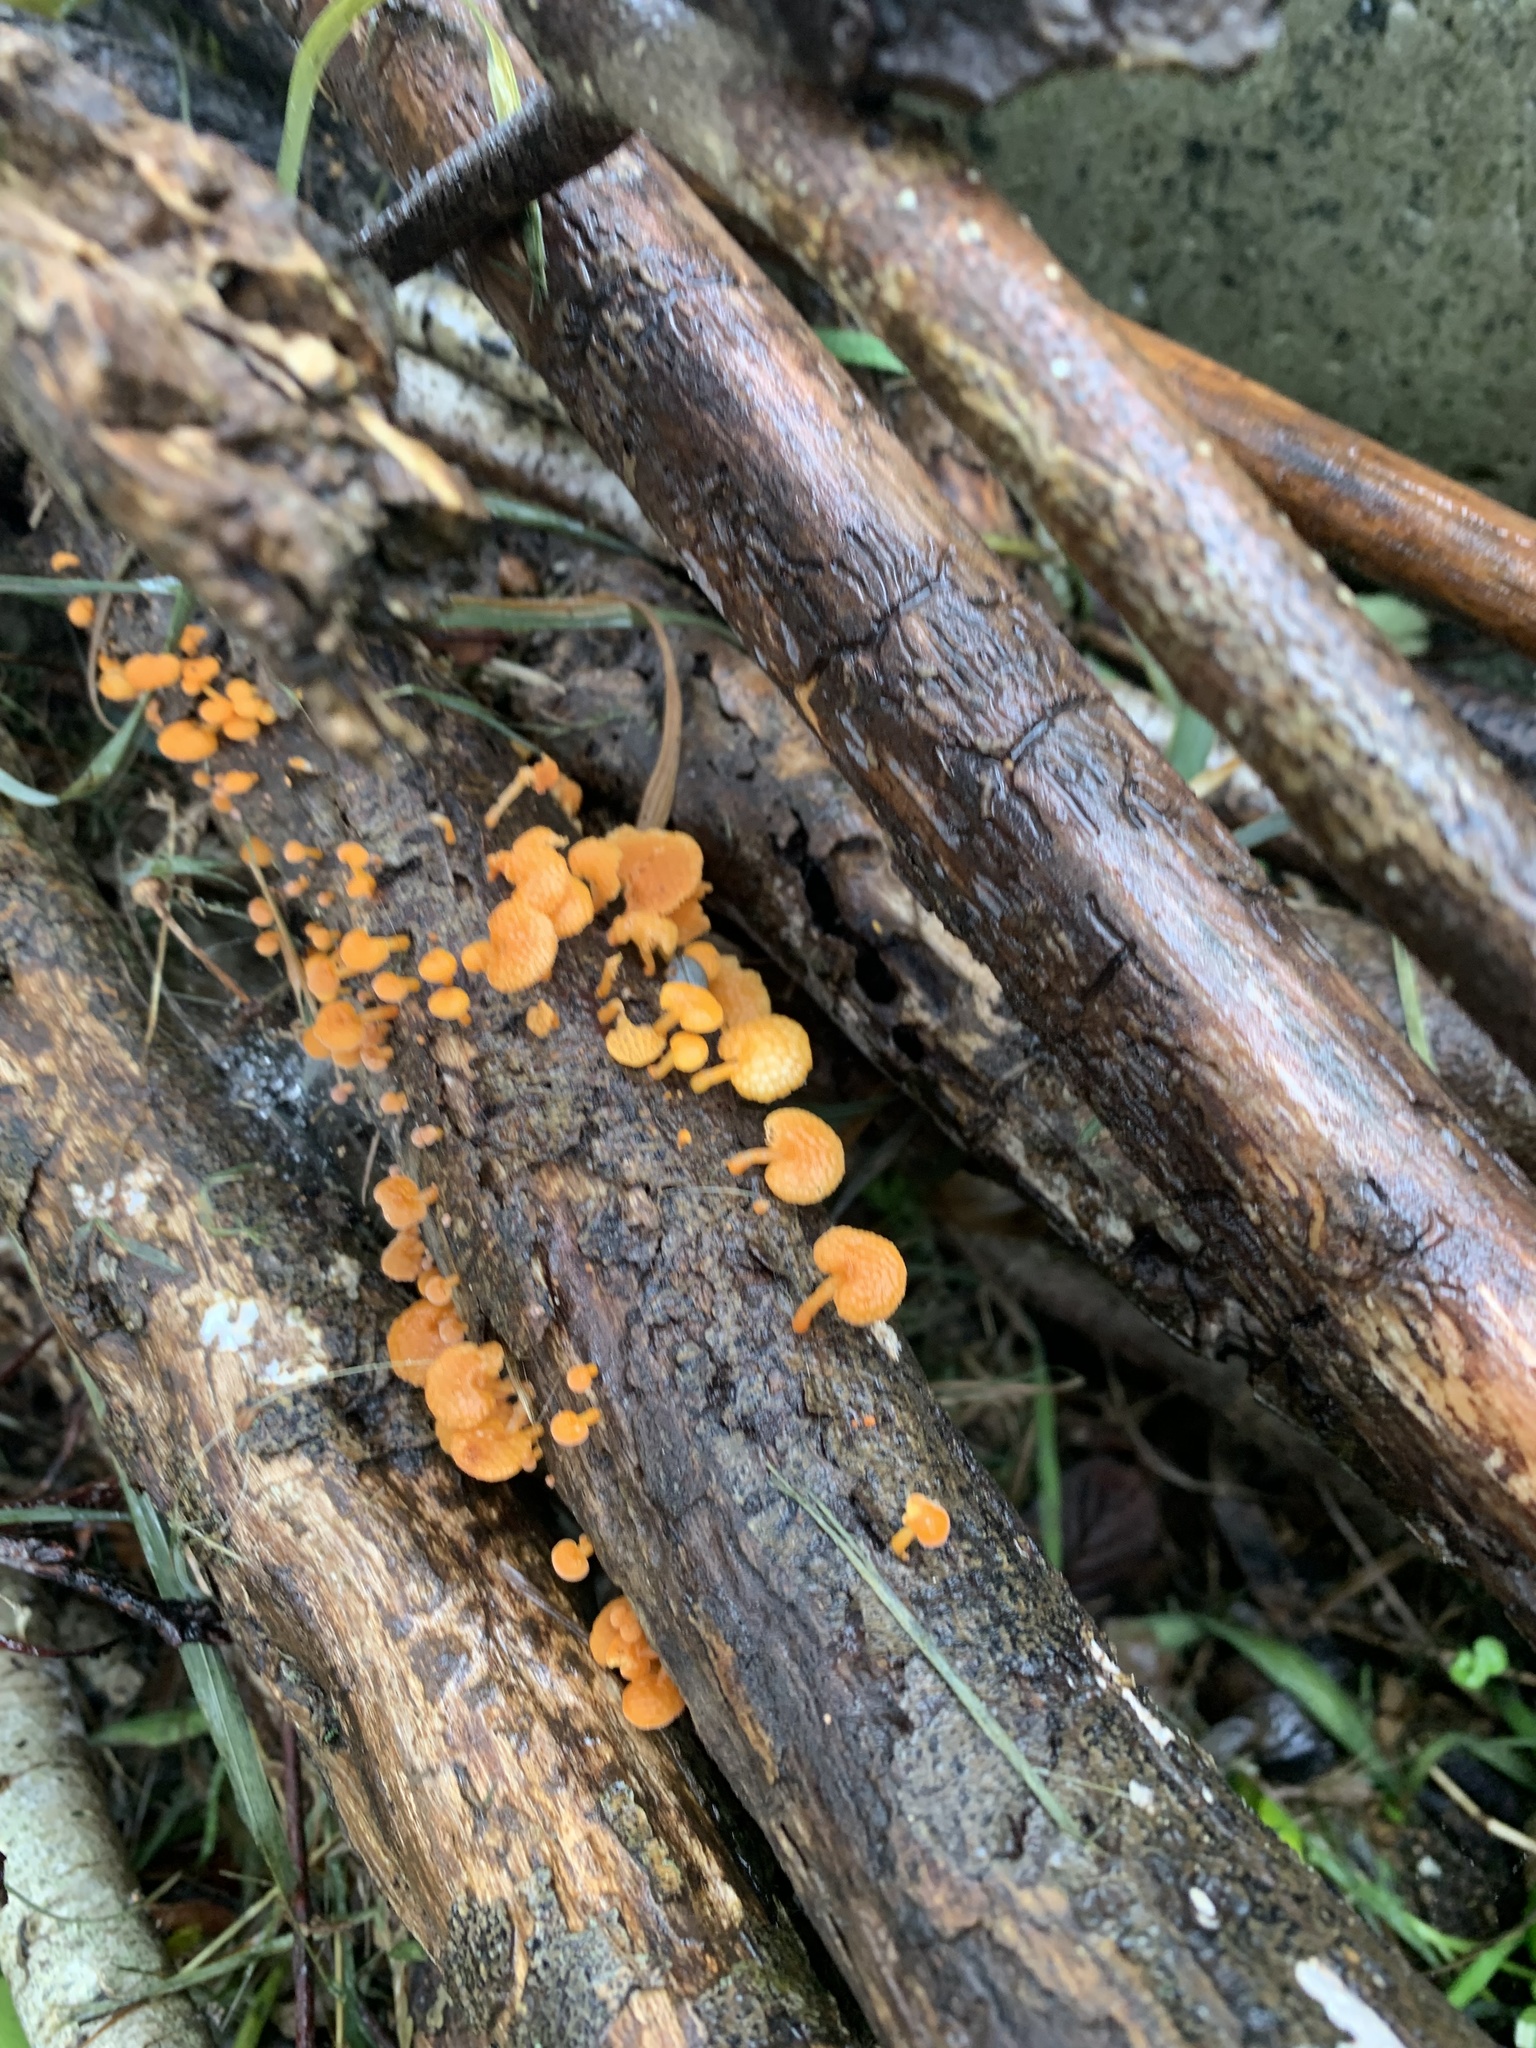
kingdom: Fungi
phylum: Basidiomycota
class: Agaricomycetes
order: Agaricales
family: Mycenaceae
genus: Favolaschia
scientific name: Favolaschia claudopus
